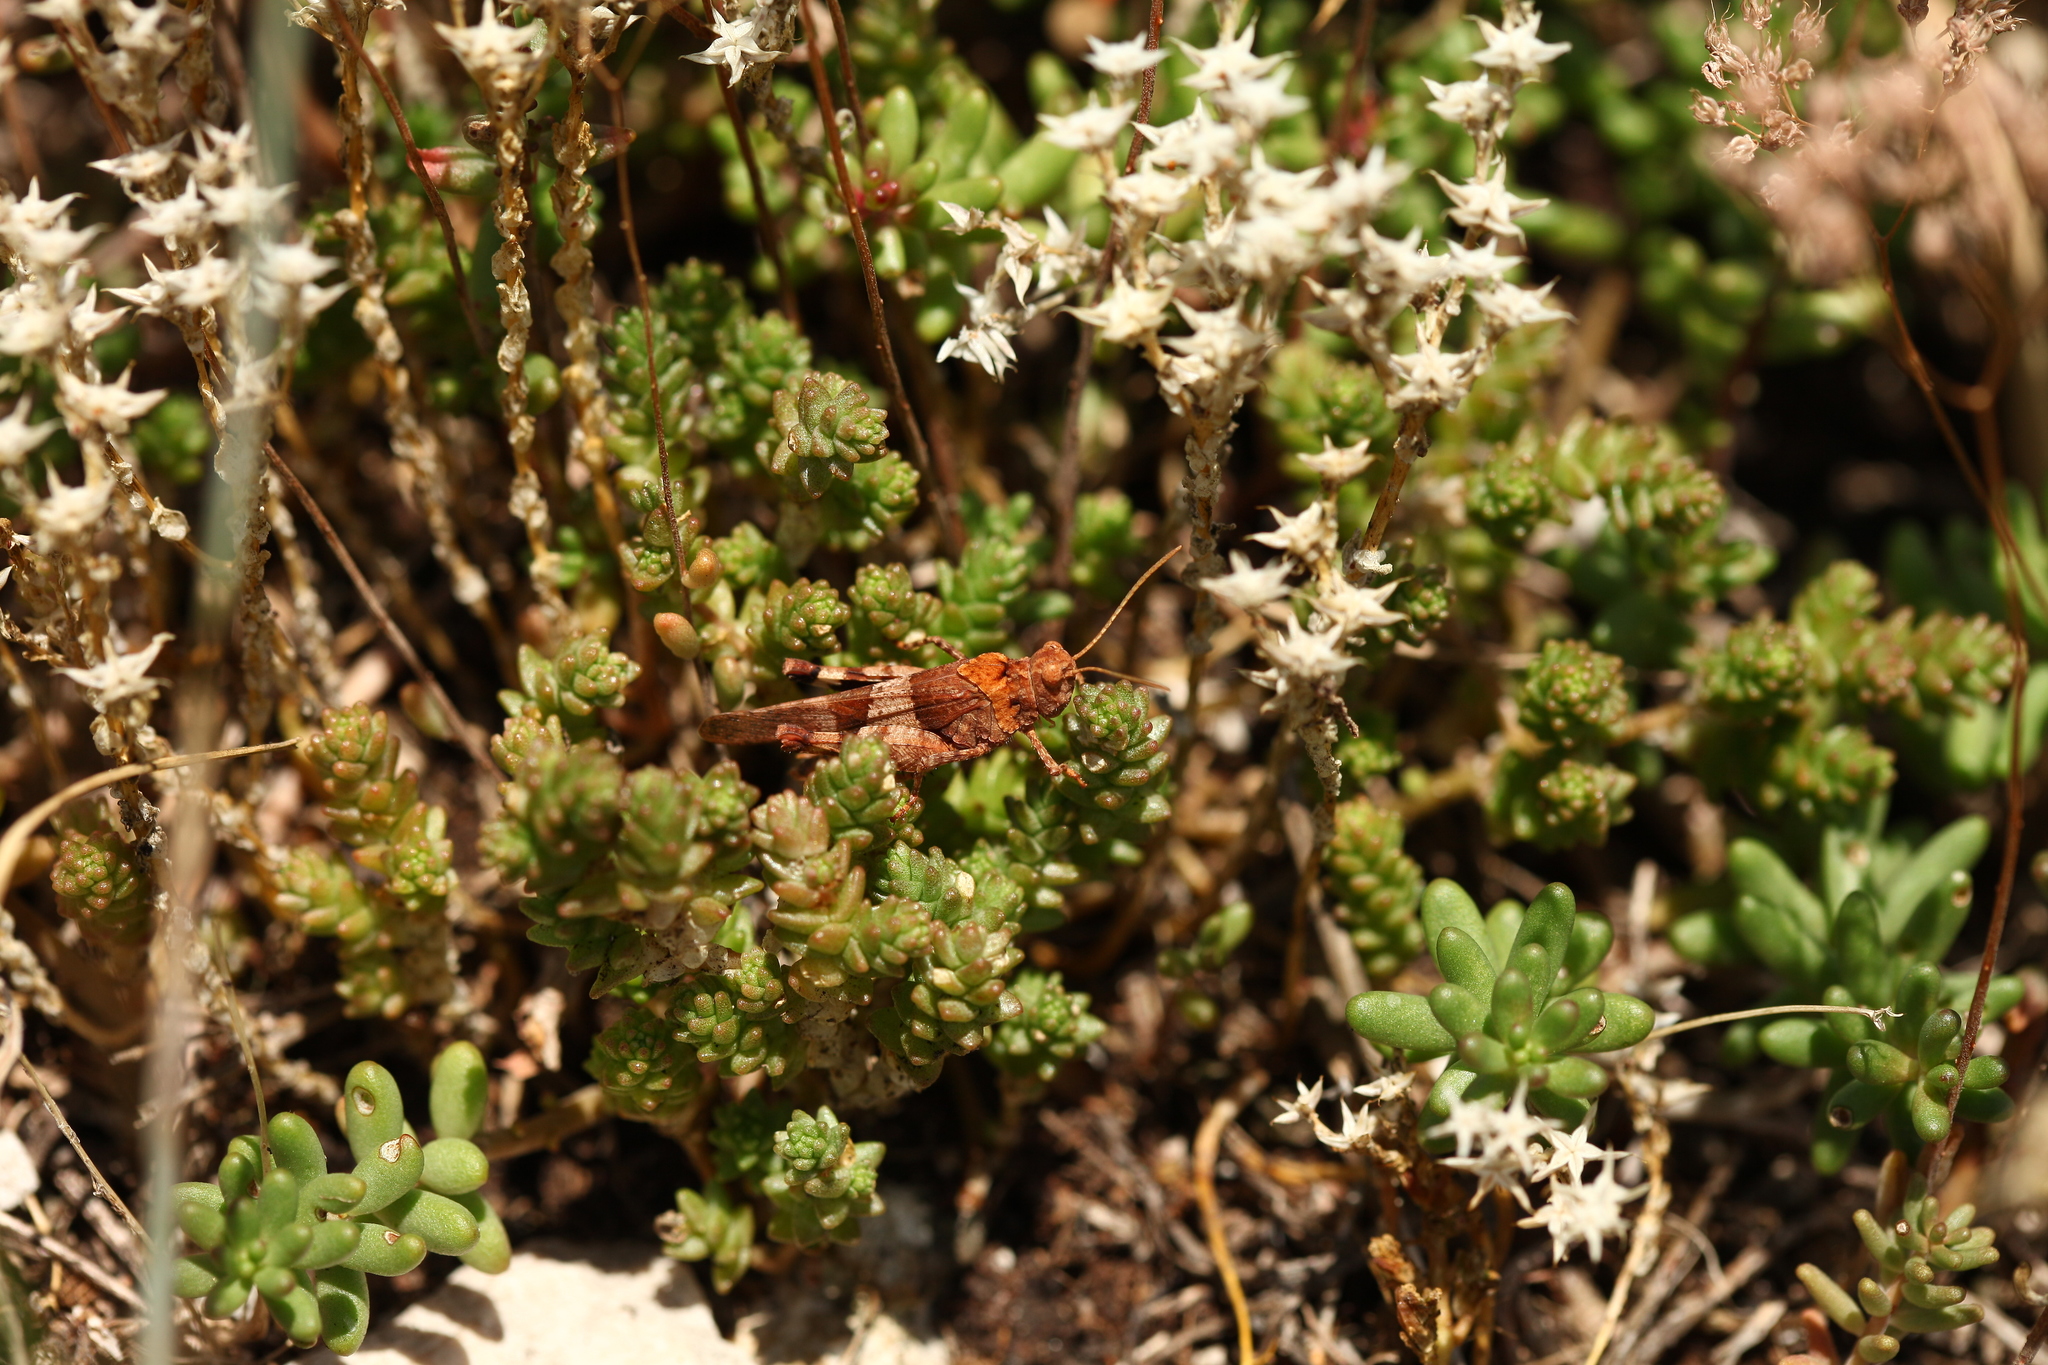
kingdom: Animalia
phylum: Arthropoda
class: Insecta
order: Orthoptera
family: Acrididae
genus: Oedipoda
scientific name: Oedipoda caerulescens
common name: Blue-winged grasshopper
